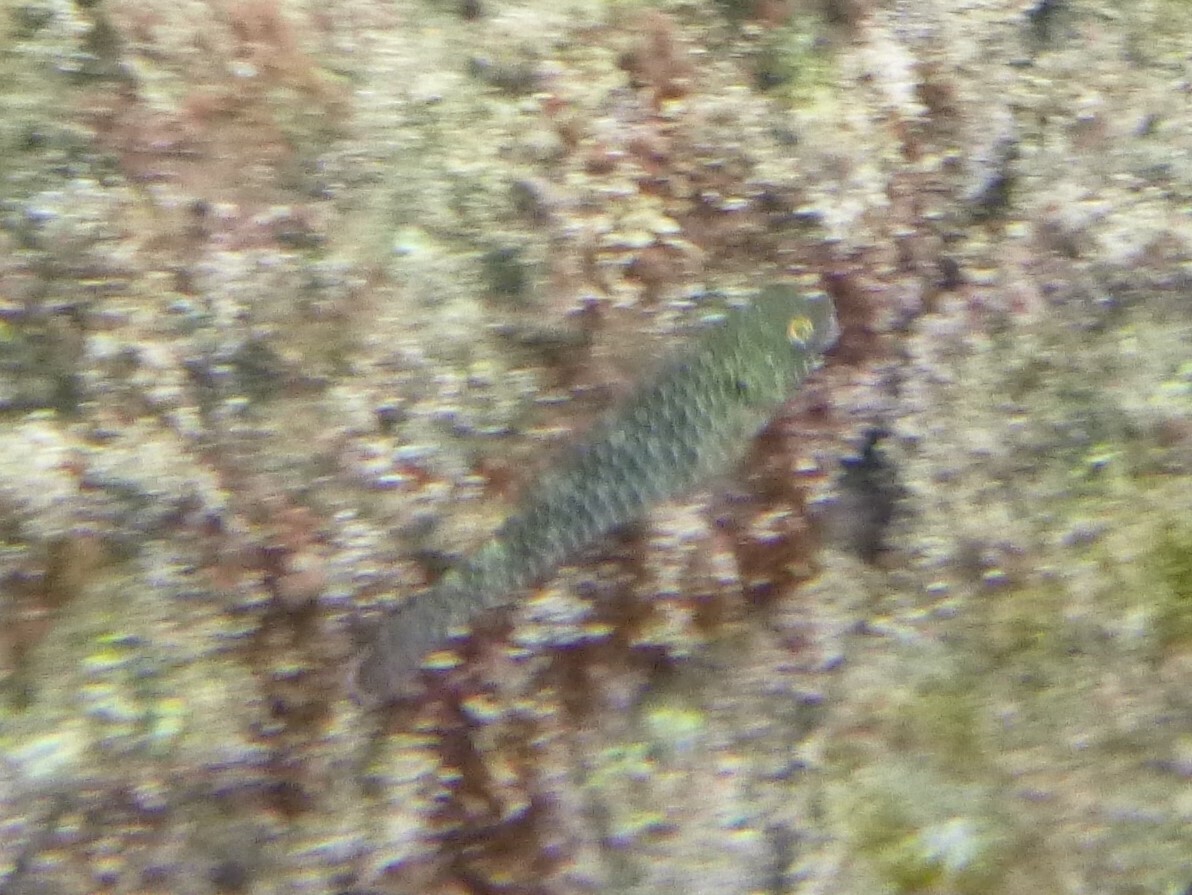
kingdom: Animalia
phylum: Chordata
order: Perciformes
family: Scaridae
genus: Sparisoma
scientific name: Sparisoma cretense
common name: Parrotfish
